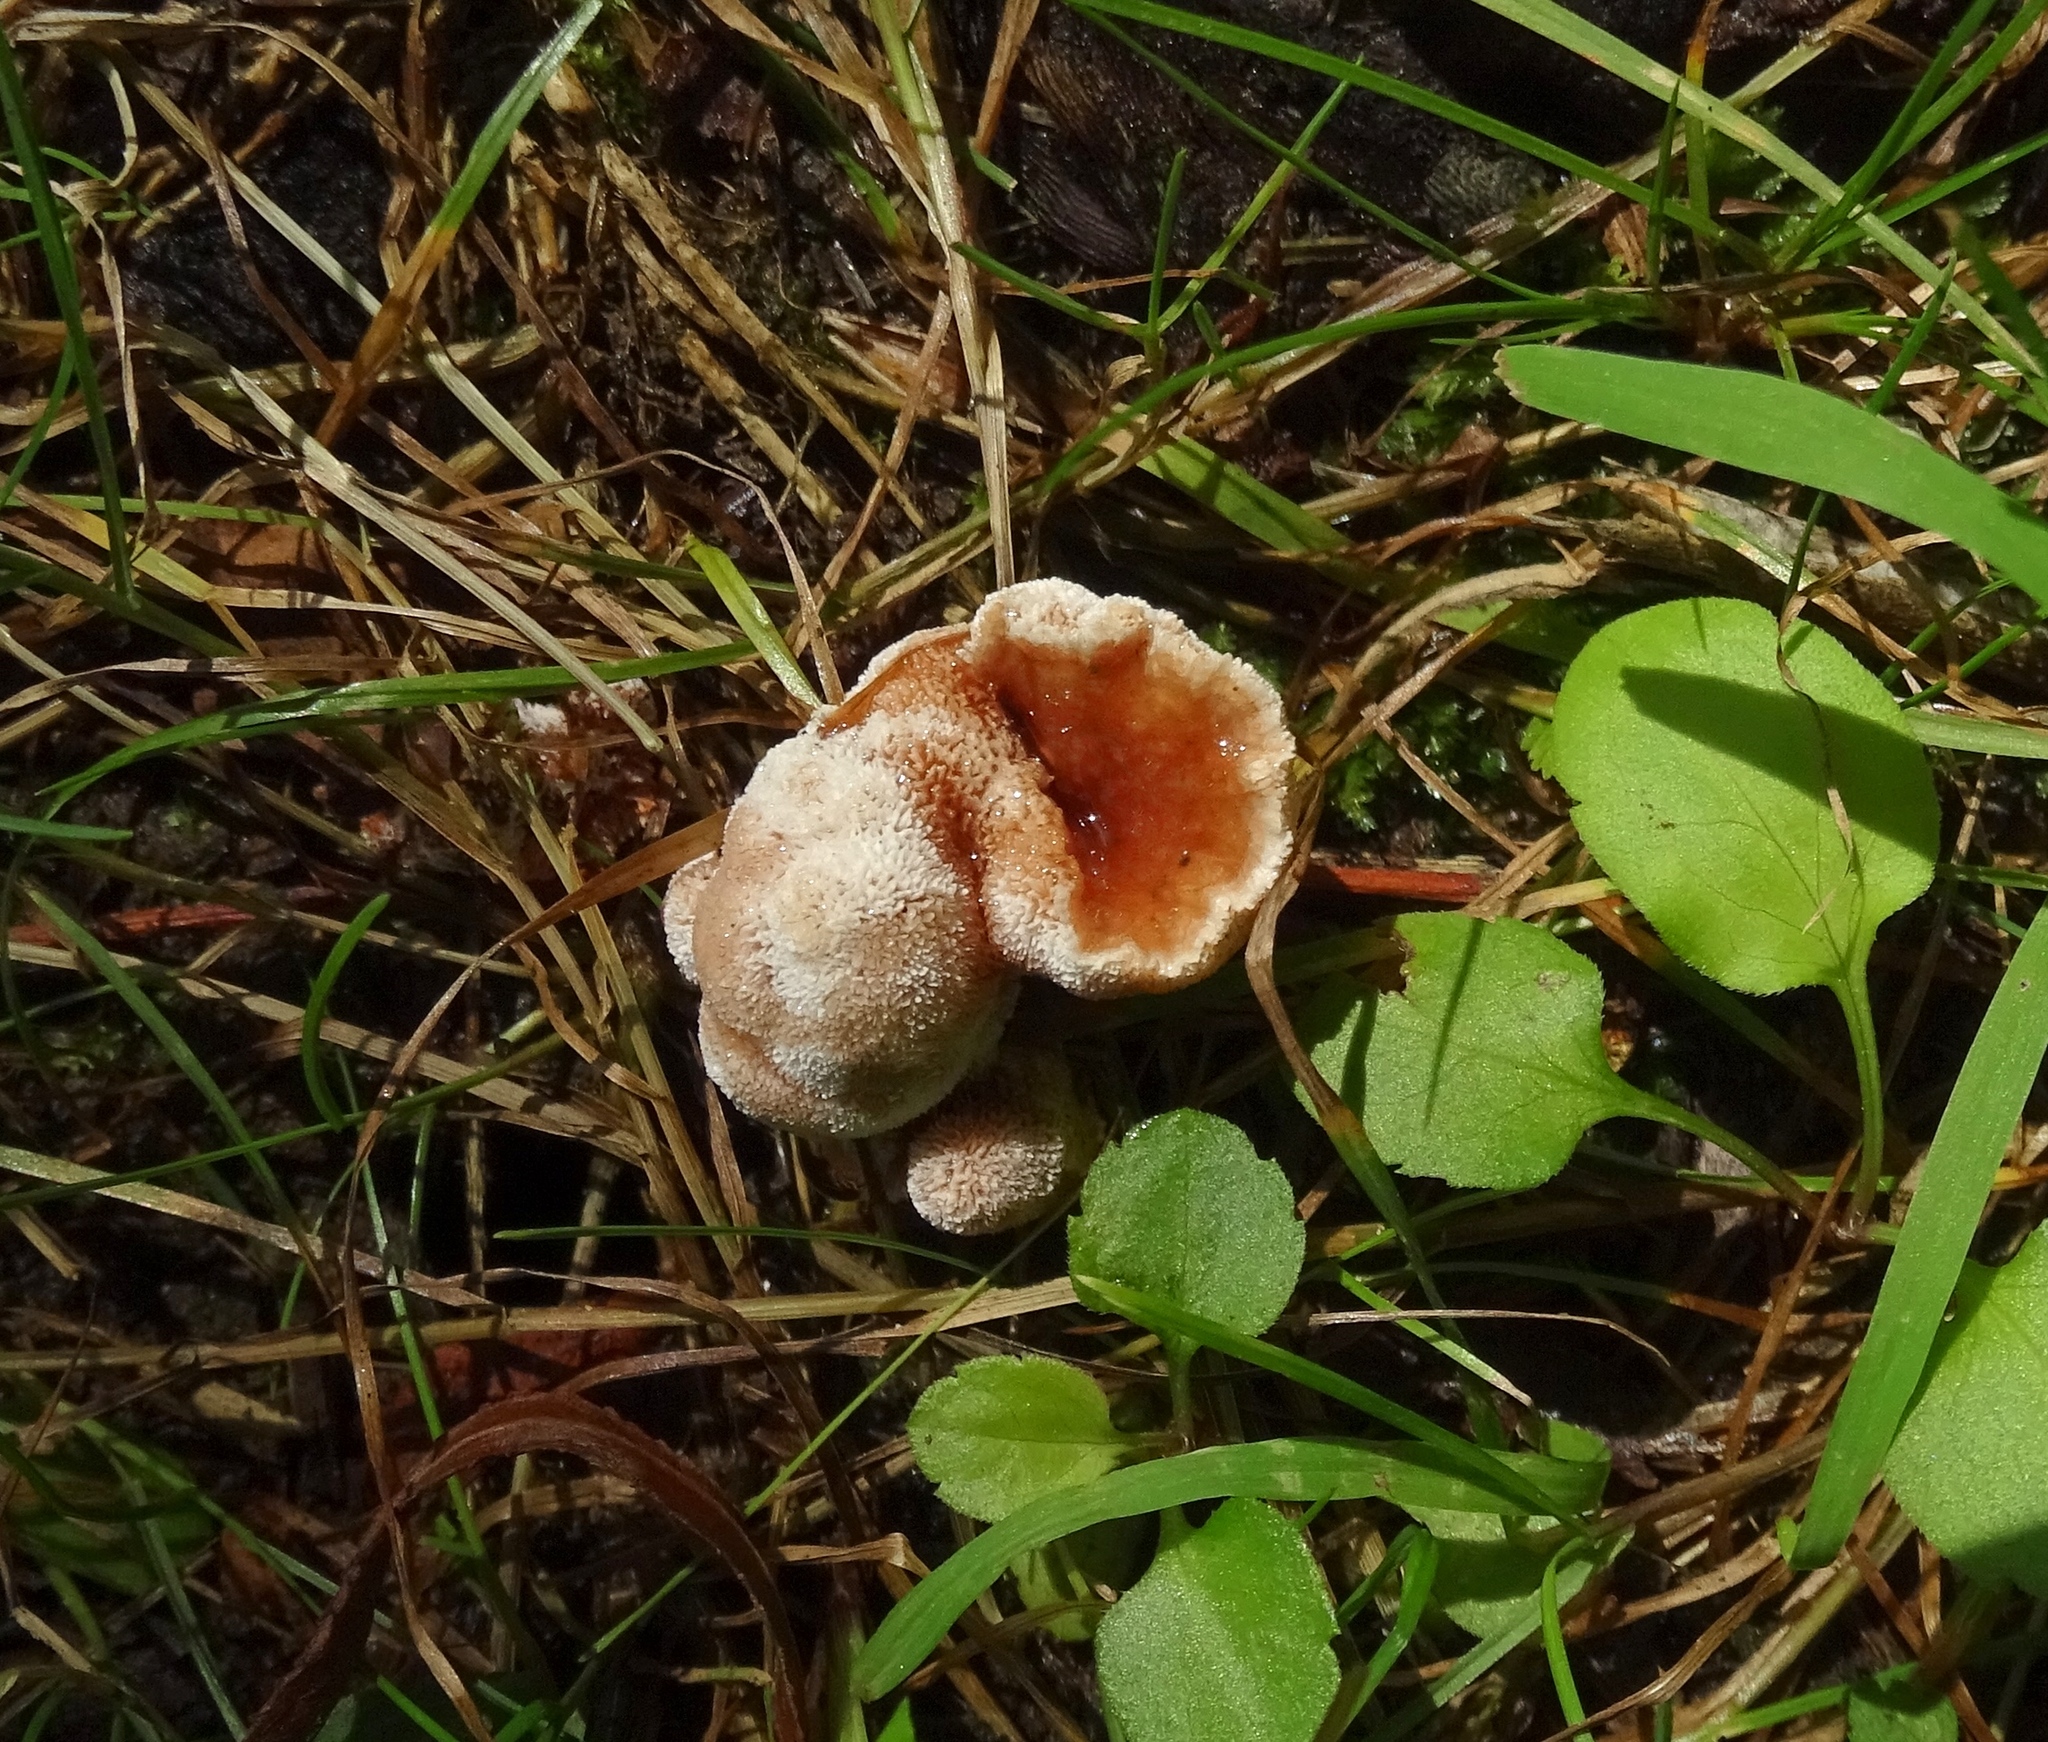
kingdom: Fungi
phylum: Basidiomycota
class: Agaricomycetes
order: Polyporales
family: Podoscyphaceae
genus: Abortiporus
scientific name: Abortiporus biennis
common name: Blushing rosette
